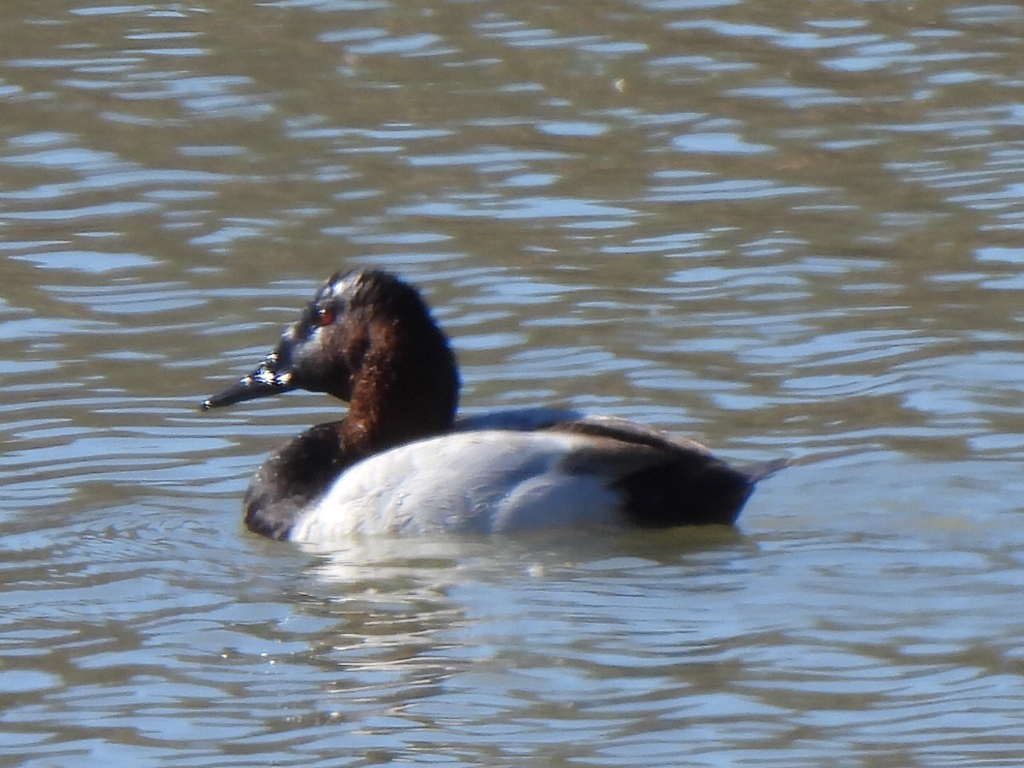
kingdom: Animalia
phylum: Chordata
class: Aves
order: Anseriformes
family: Anatidae
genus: Aythya
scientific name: Aythya valisineria
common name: Canvasback
